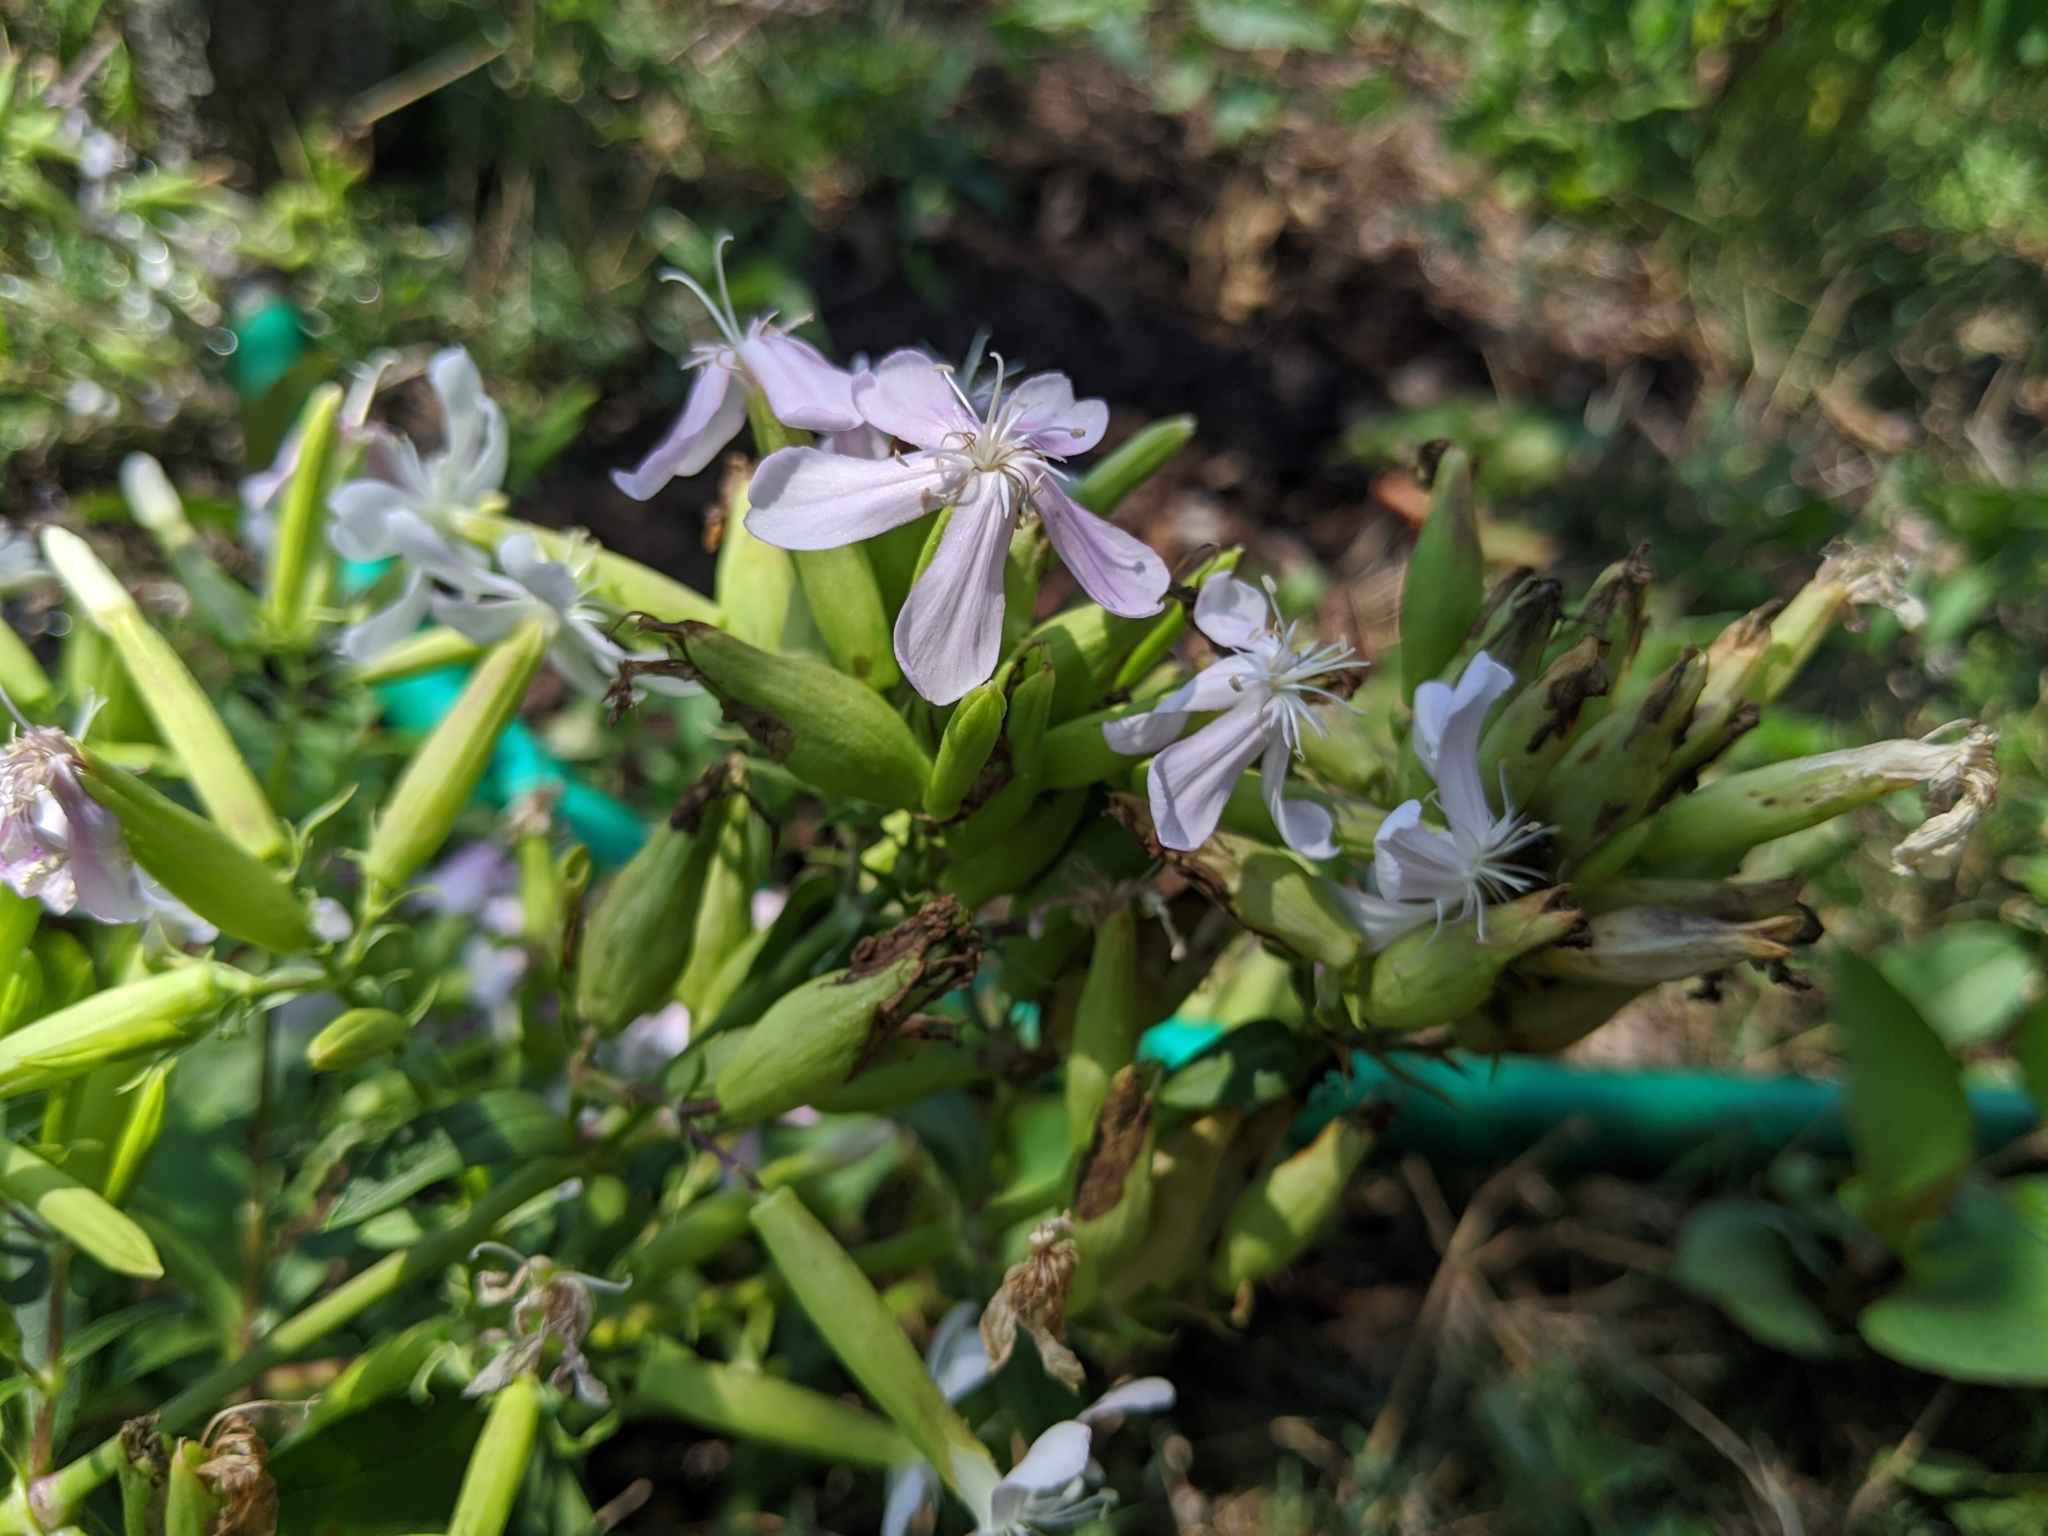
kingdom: Plantae
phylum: Tracheophyta
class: Magnoliopsida
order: Caryophyllales
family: Caryophyllaceae
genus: Saponaria
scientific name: Saponaria officinalis
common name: Soapwort
